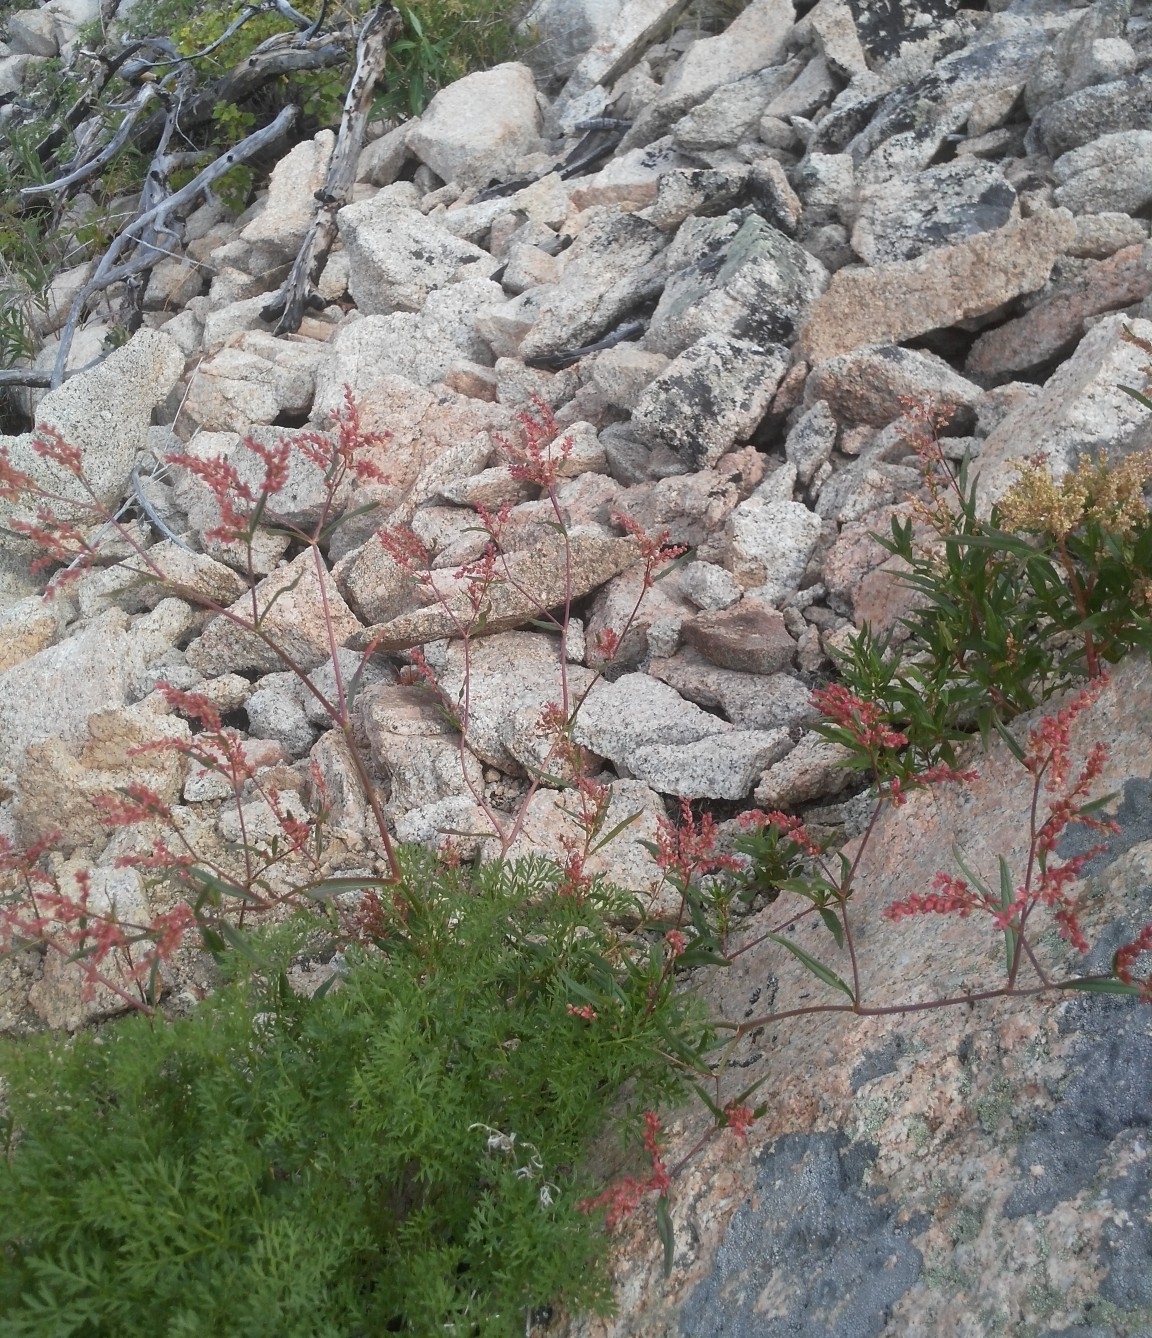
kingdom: Plantae
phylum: Tracheophyta
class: Magnoliopsida
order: Caryophyllales
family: Polygonaceae
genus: Persicaria
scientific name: Persicaria angustifolia
